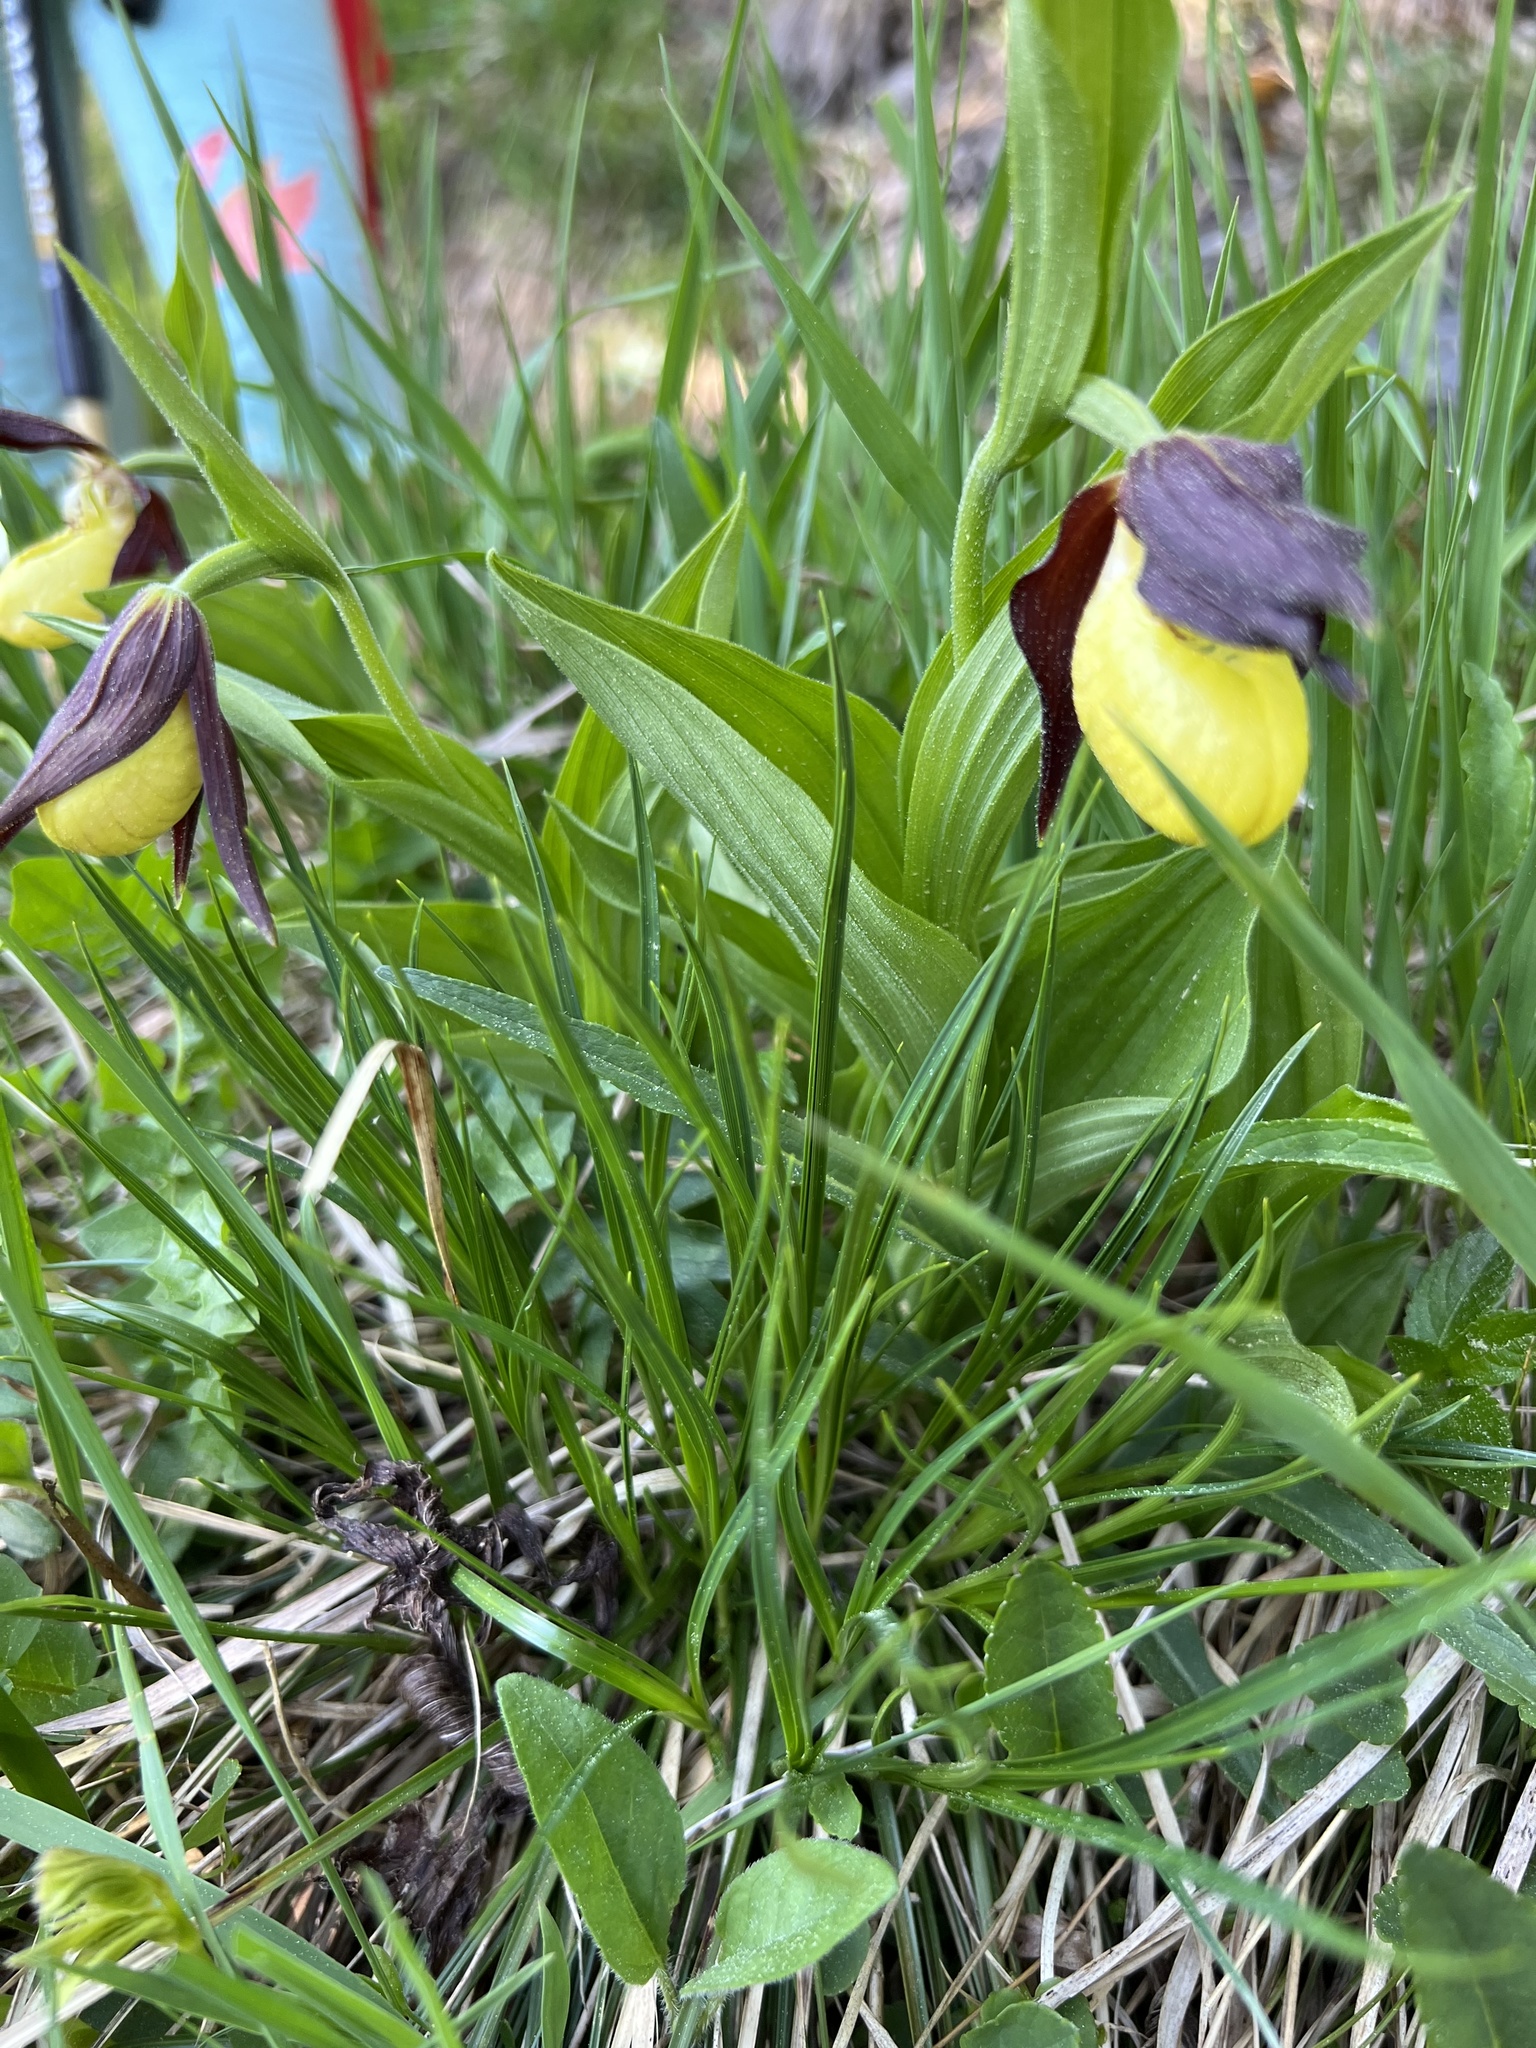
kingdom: Plantae
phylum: Tracheophyta
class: Liliopsida
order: Asparagales
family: Orchidaceae
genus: Cypripedium
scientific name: Cypripedium calceolus
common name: Lady's-slipper
